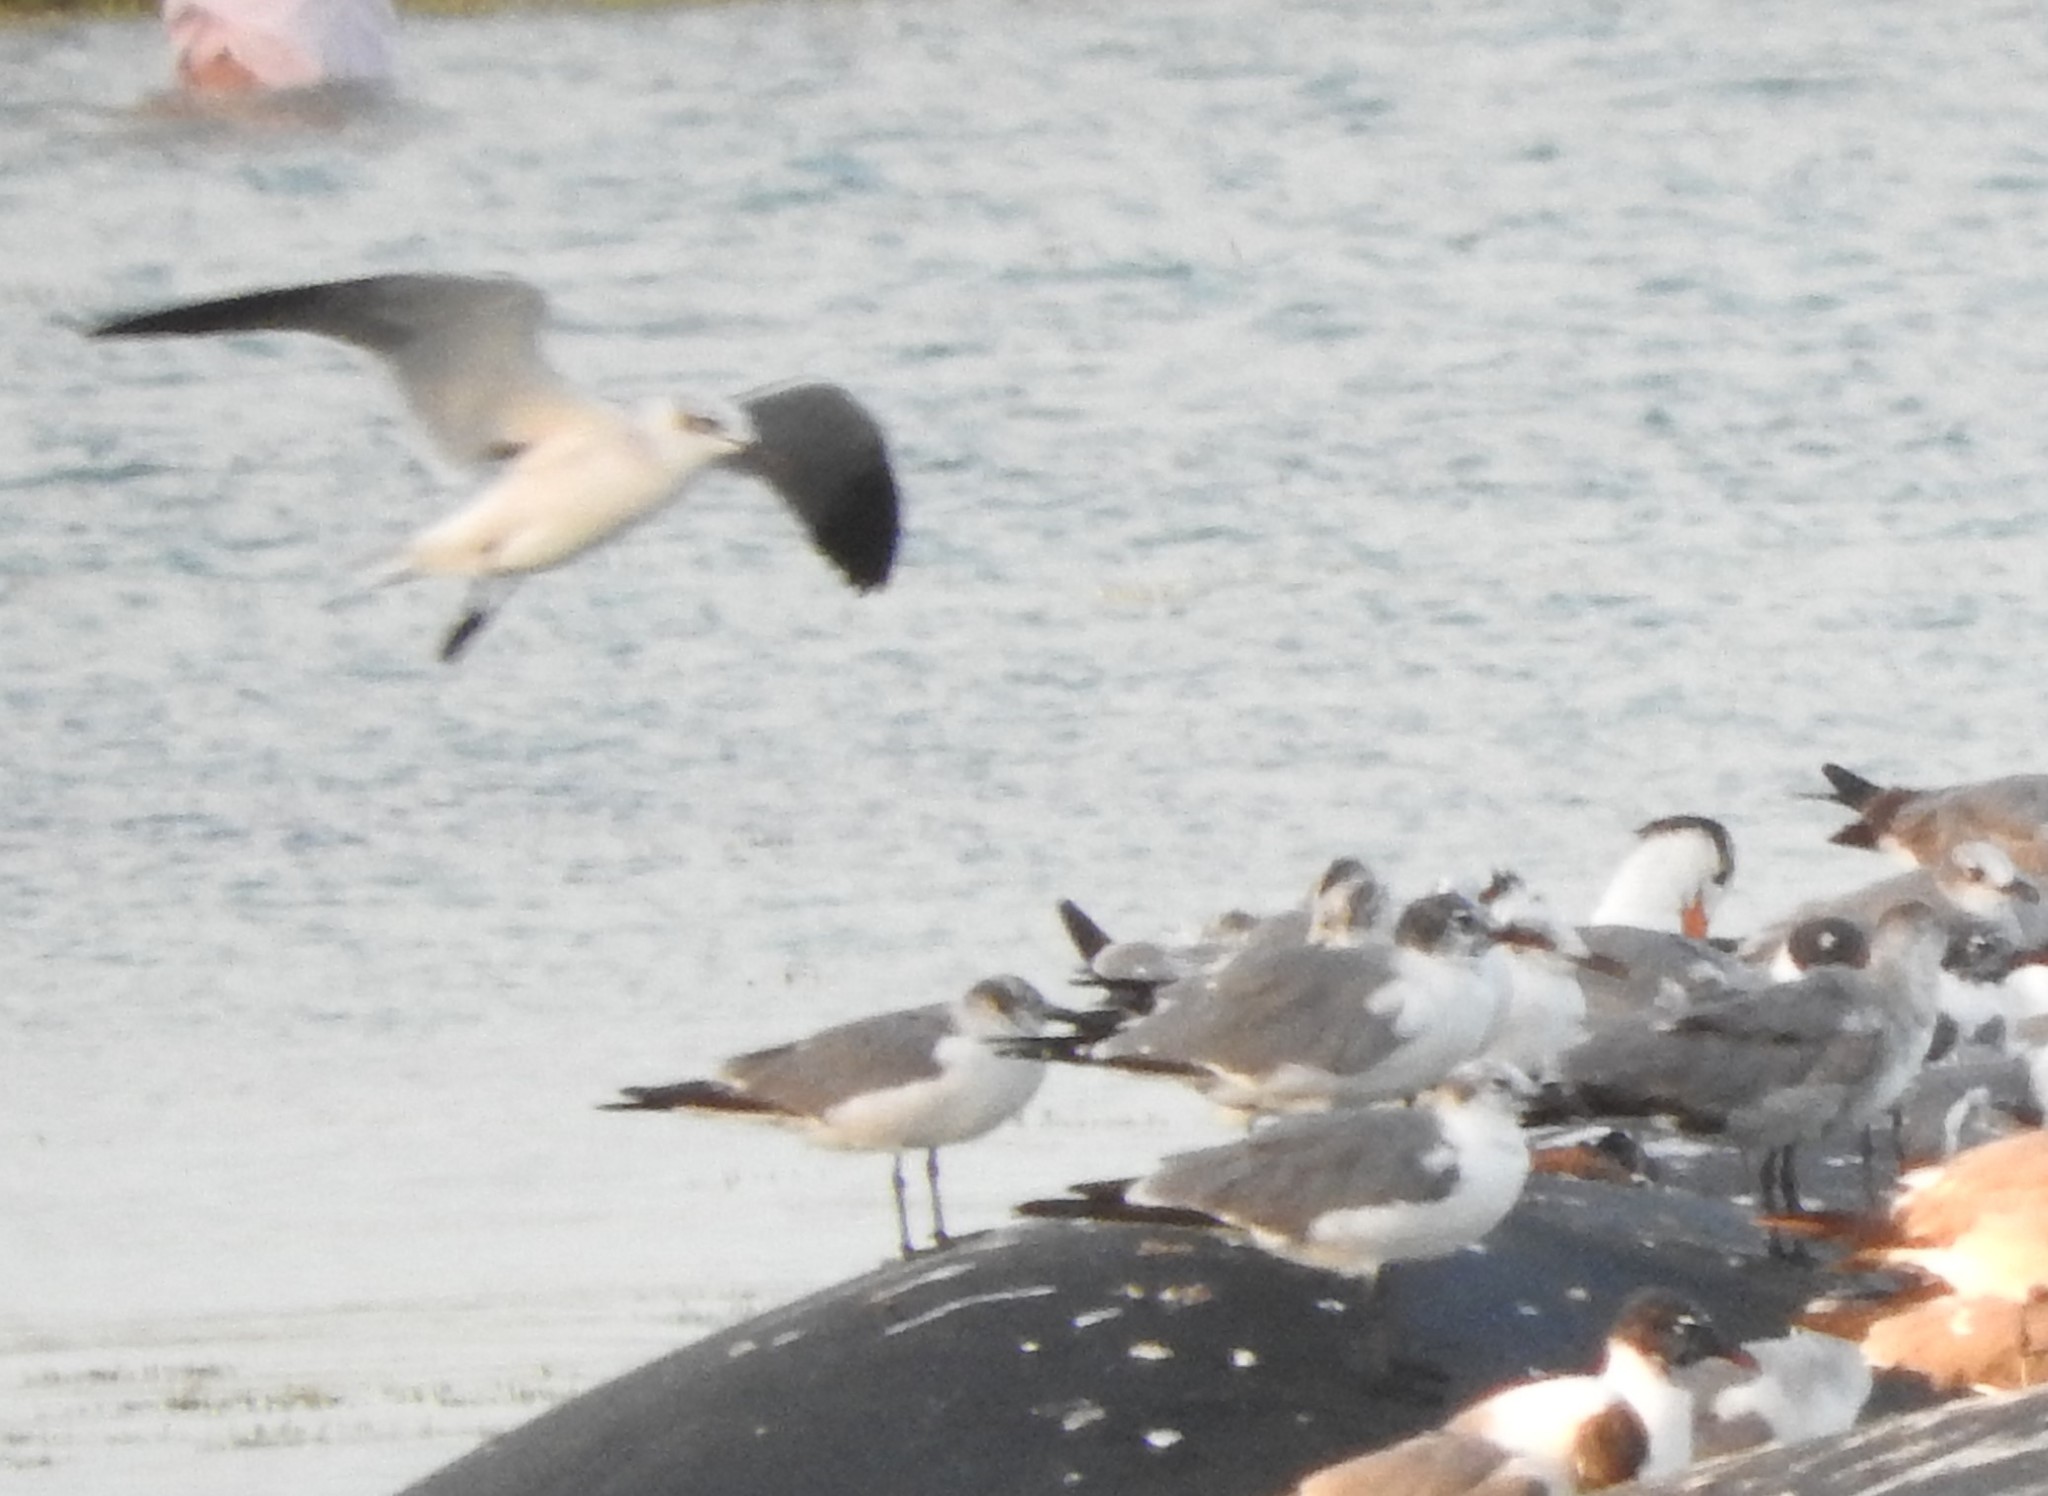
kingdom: Animalia
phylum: Chordata
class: Aves
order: Charadriiformes
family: Laridae
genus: Leucophaeus
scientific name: Leucophaeus atricilla
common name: Laughing gull
